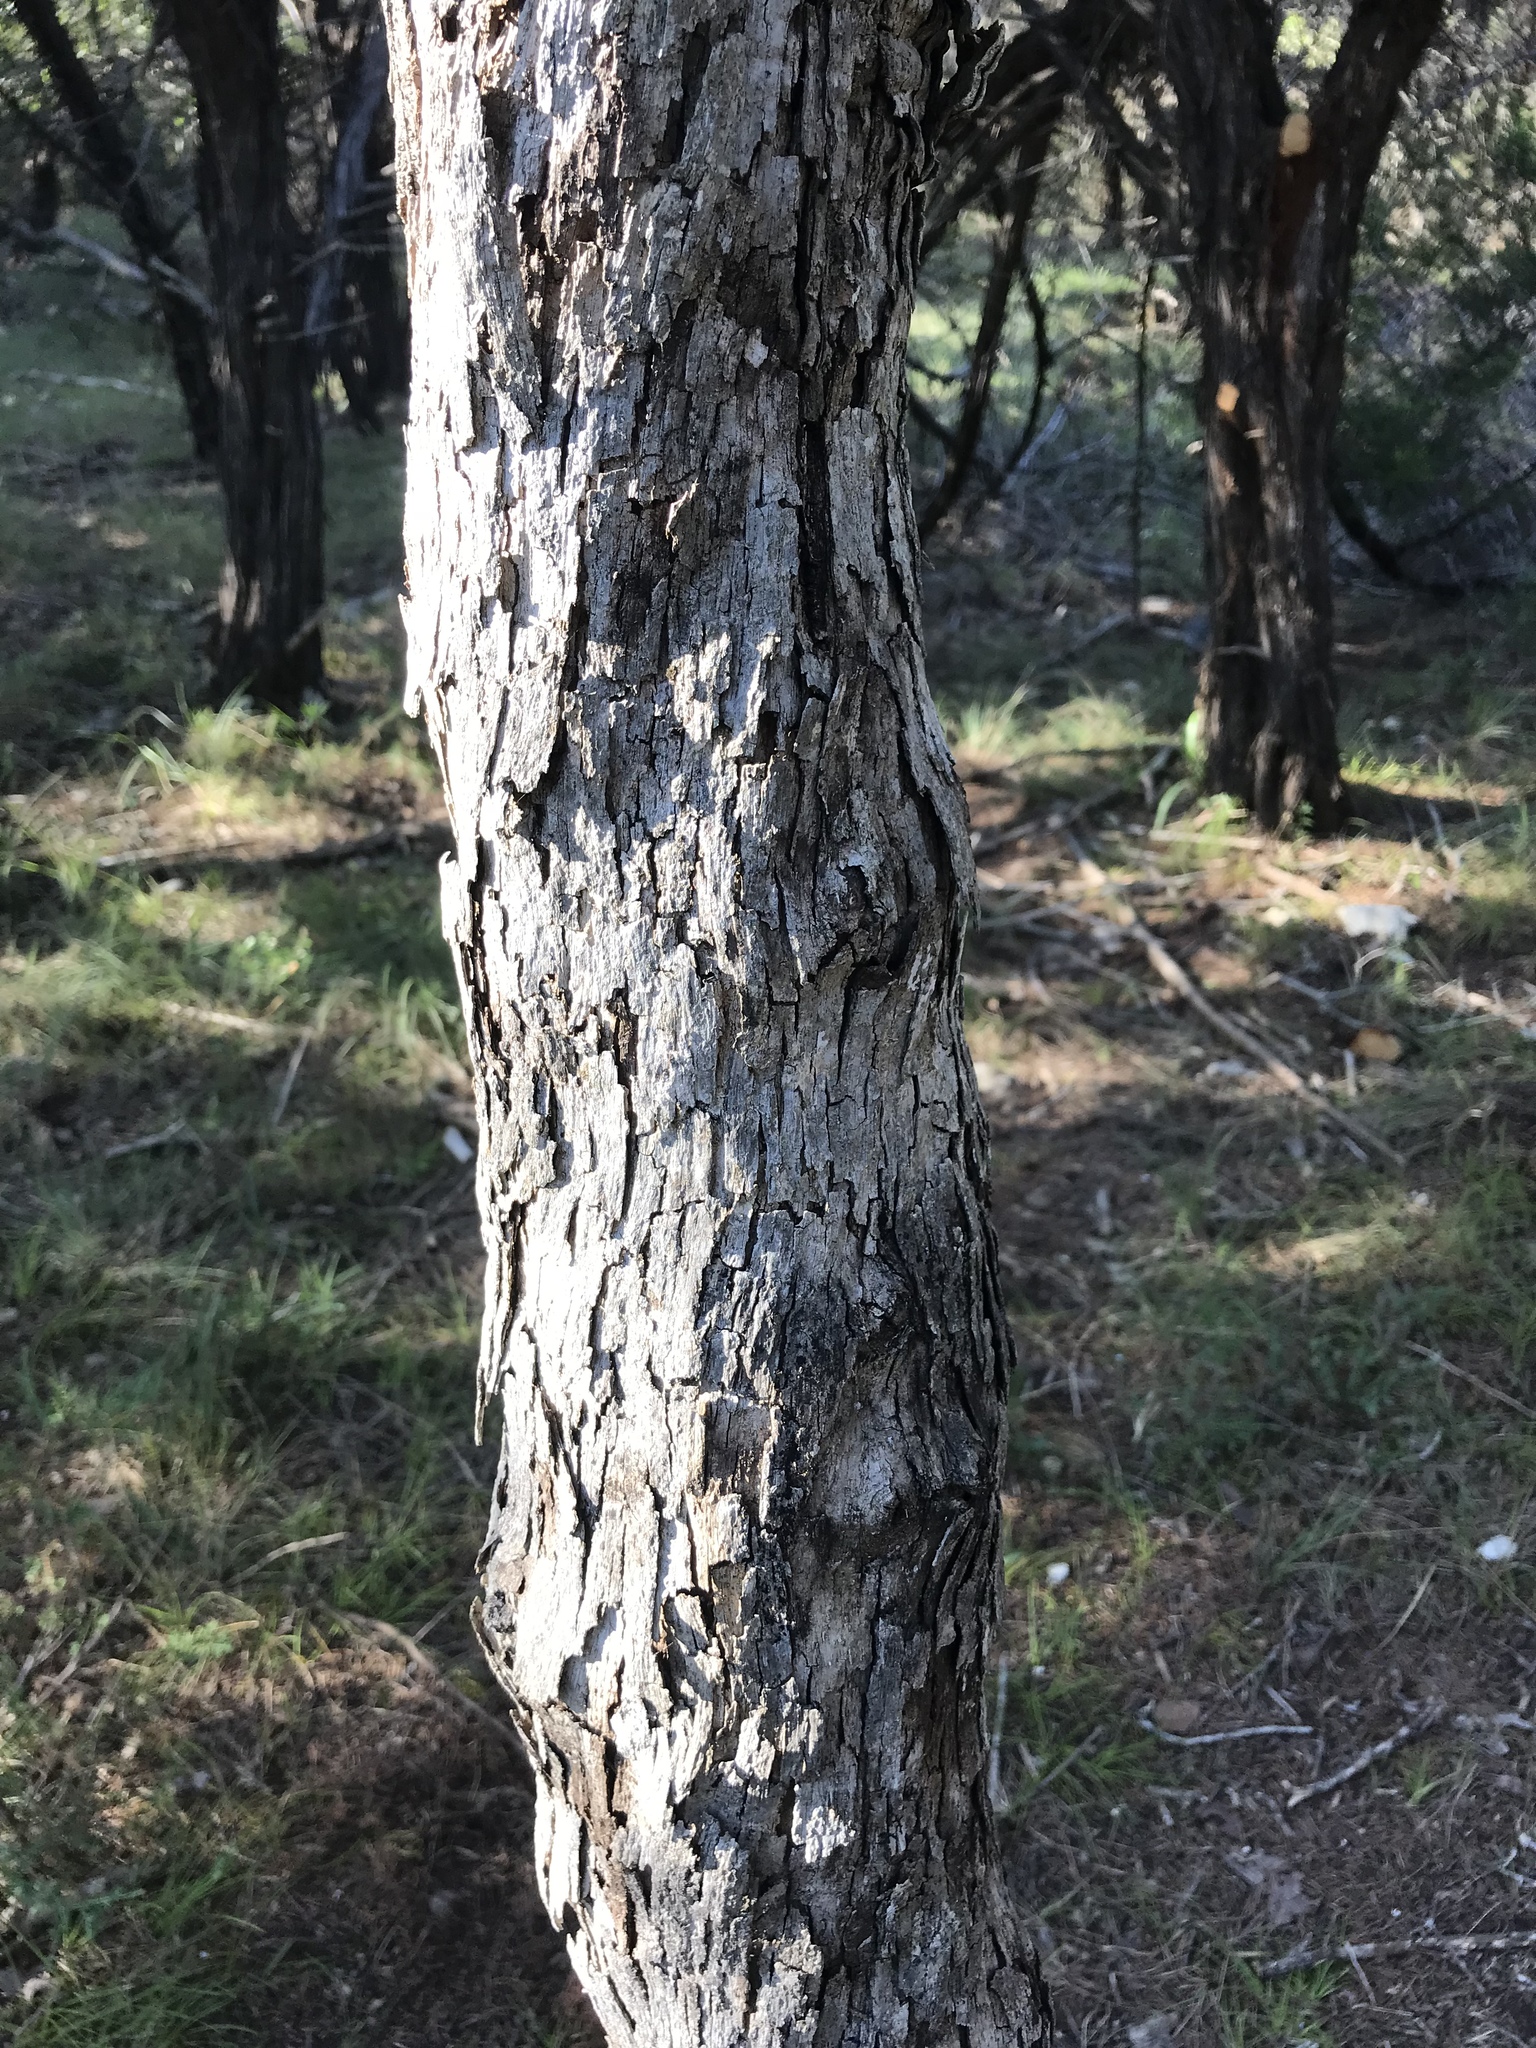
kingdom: Plantae
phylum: Tracheophyta
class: Magnoliopsida
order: Fagales
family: Fagaceae
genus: Quercus
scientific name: Quercus sinuata
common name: Durand oak
